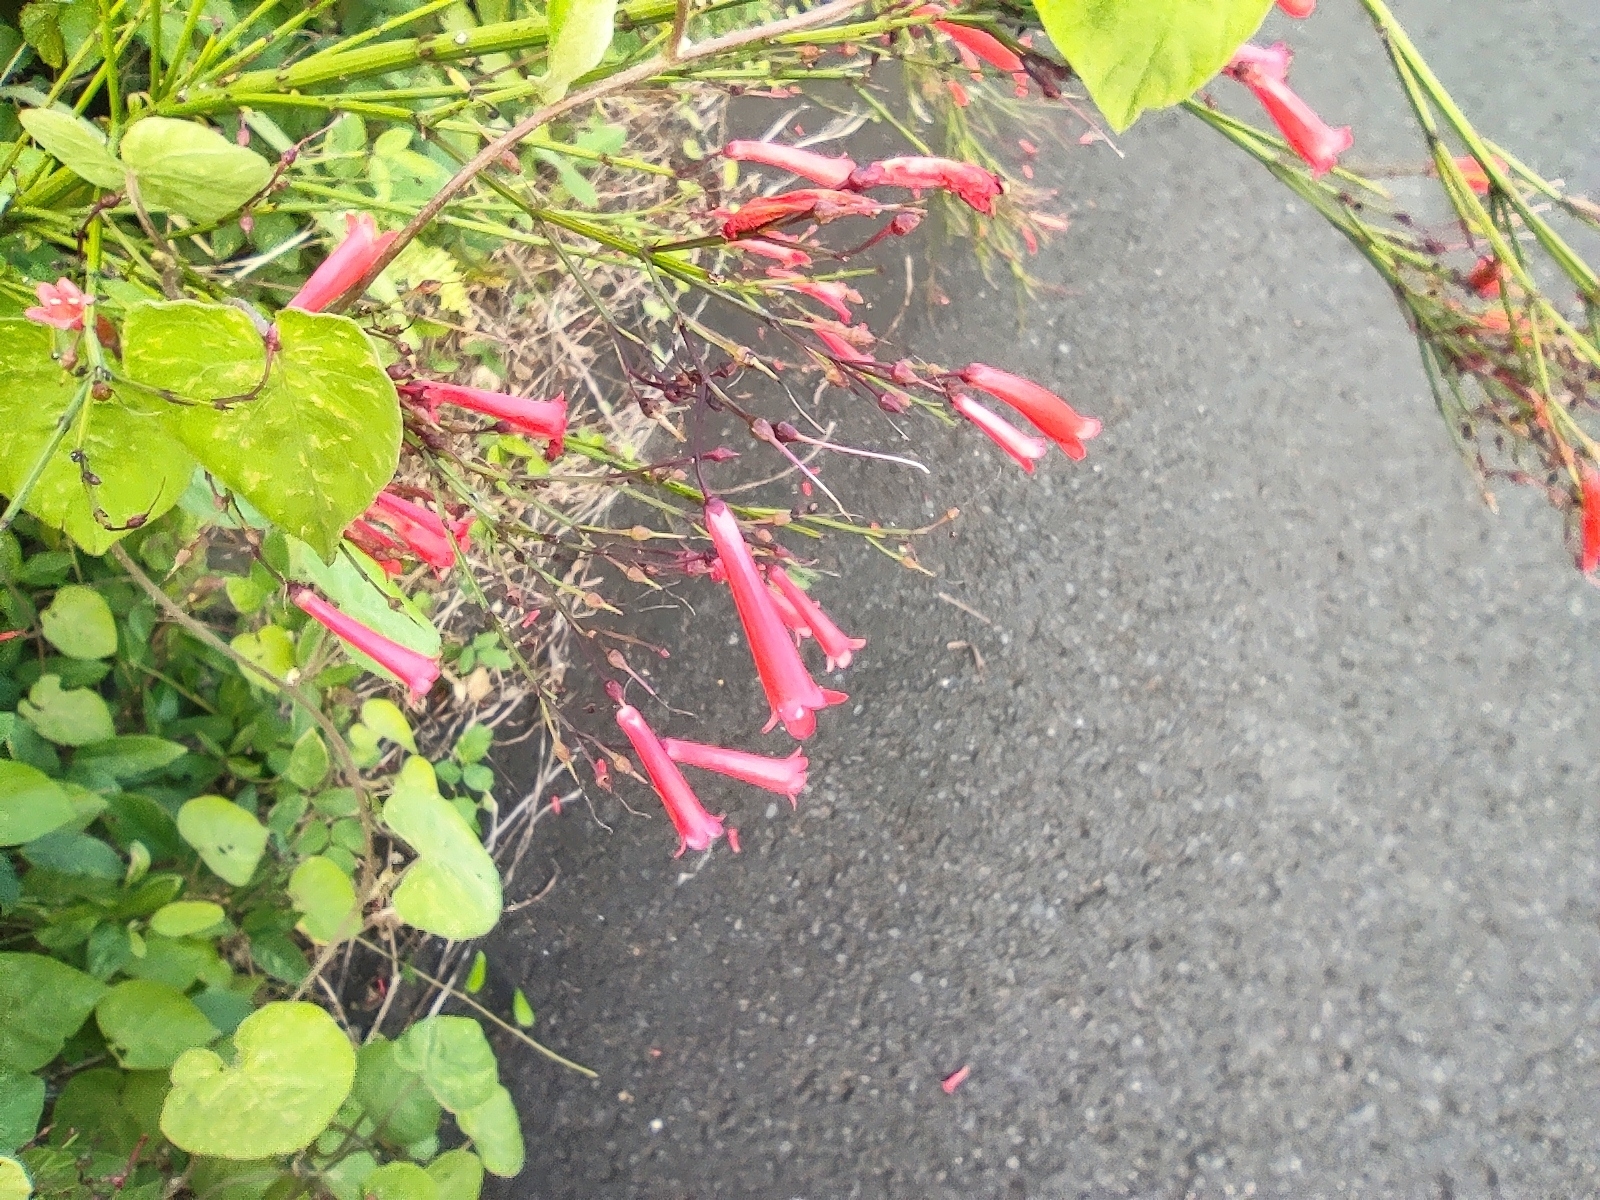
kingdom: Plantae
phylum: Tracheophyta
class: Magnoliopsida
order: Lamiales
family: Plantaginaceae
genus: Russelia
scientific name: Russelia equisetiformis
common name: Fountainbush
